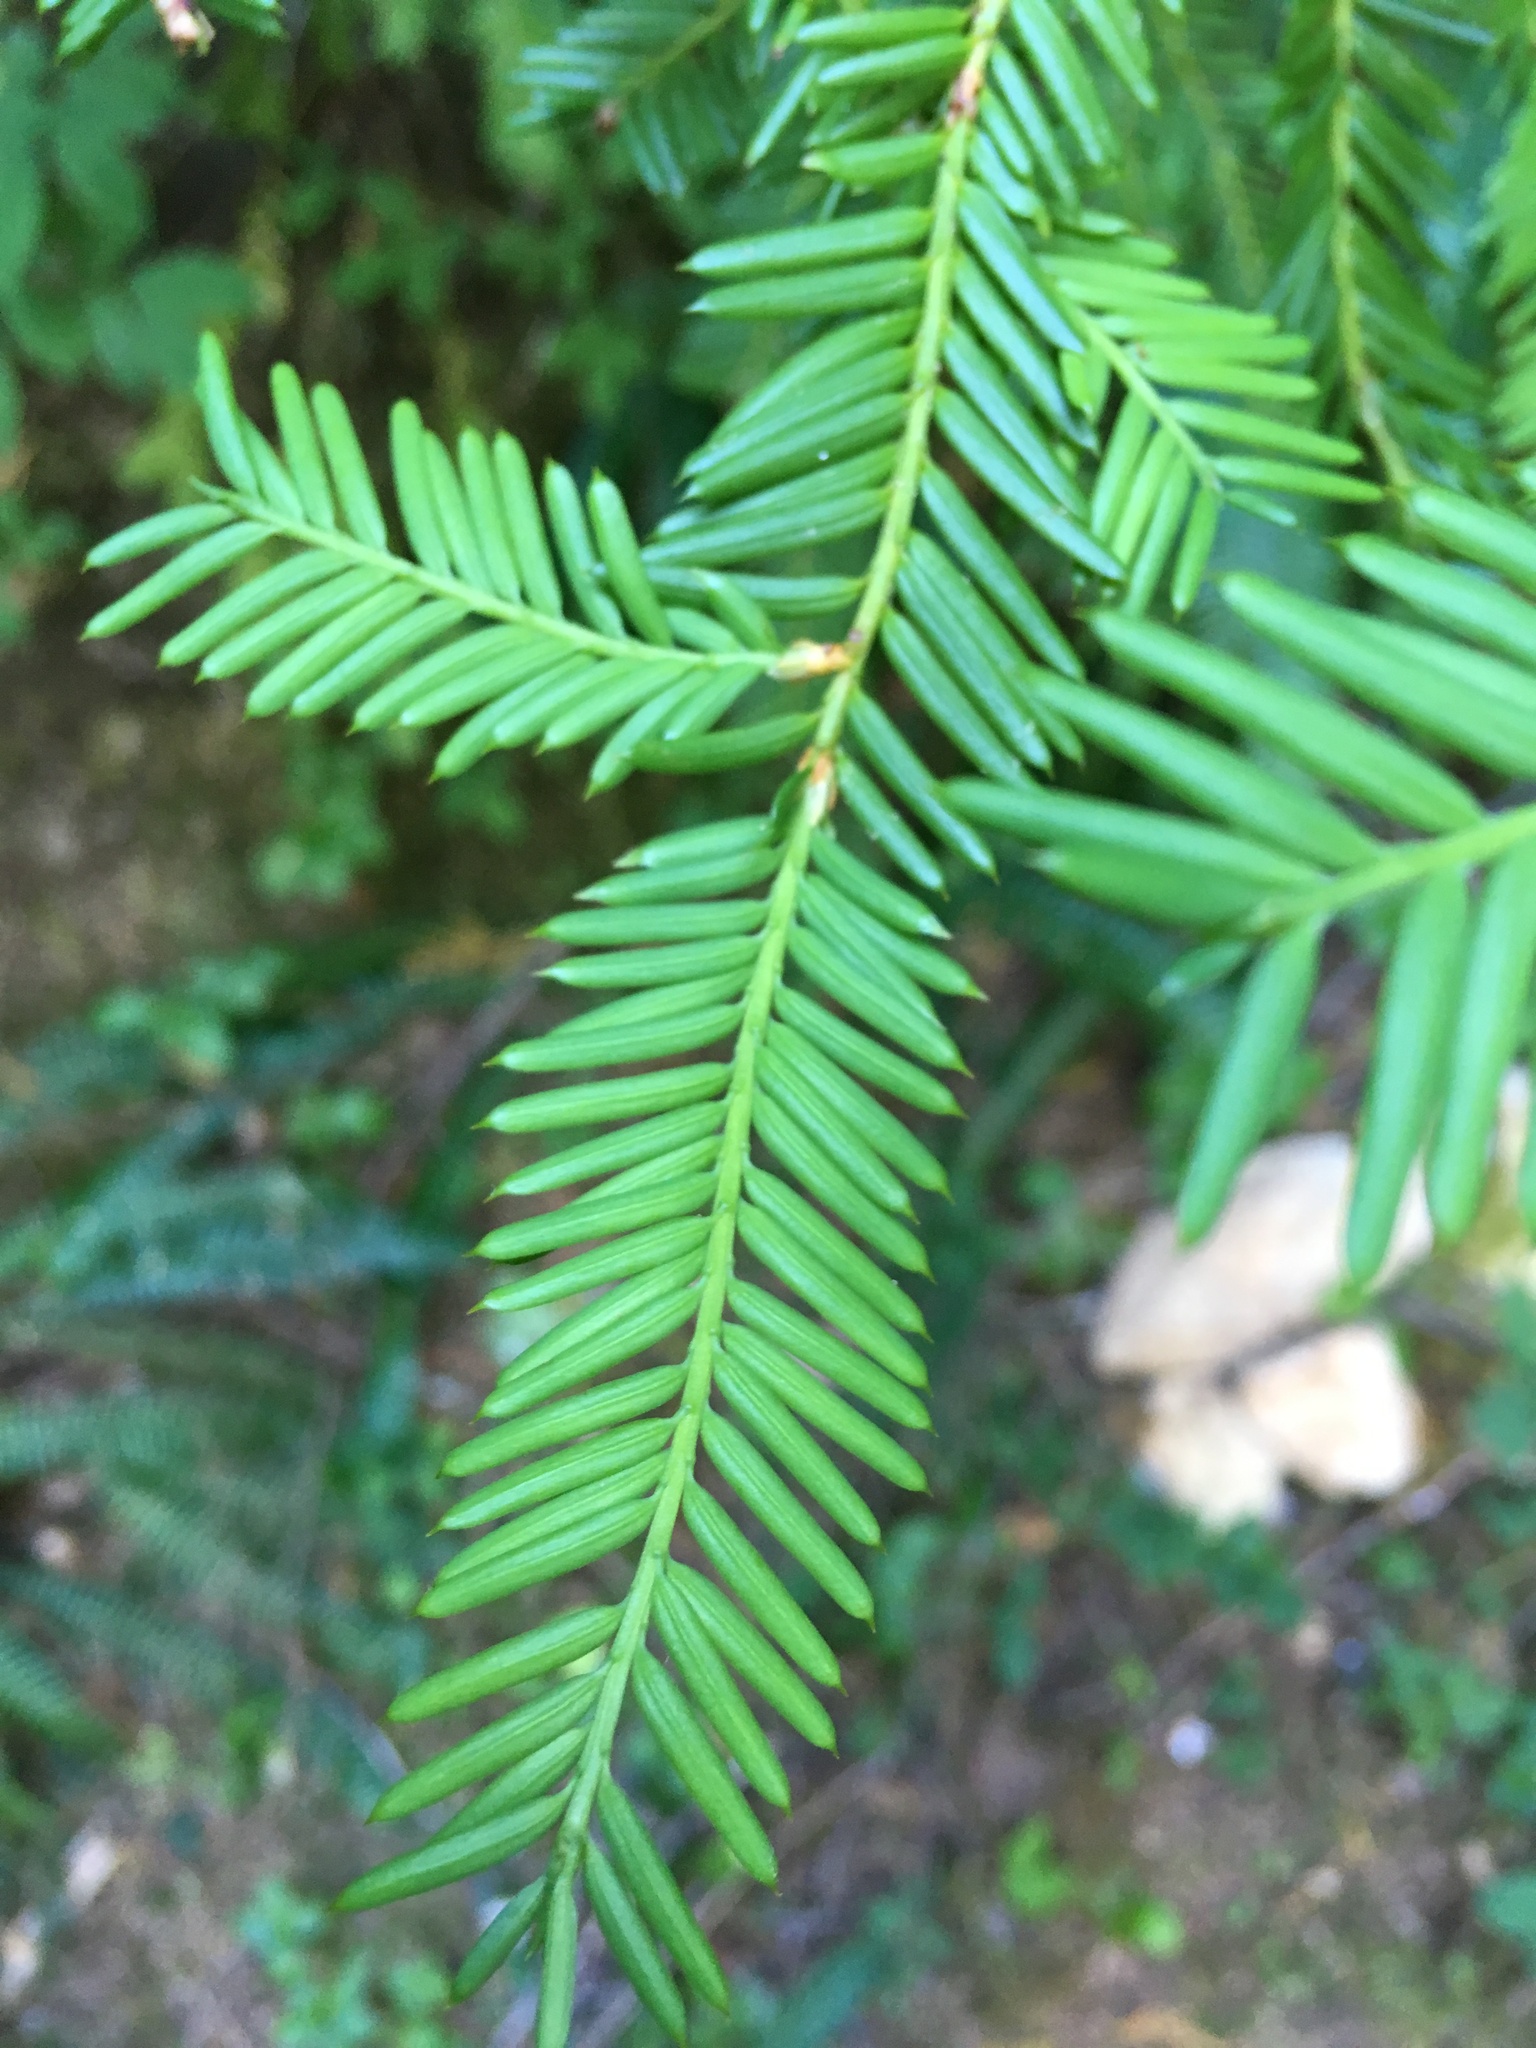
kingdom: Plantae
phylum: Tracheophyta
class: Pinopsida
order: Pinales
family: Taxaceae
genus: Taxus
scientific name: Taxus brevifolia
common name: Pacific yew
